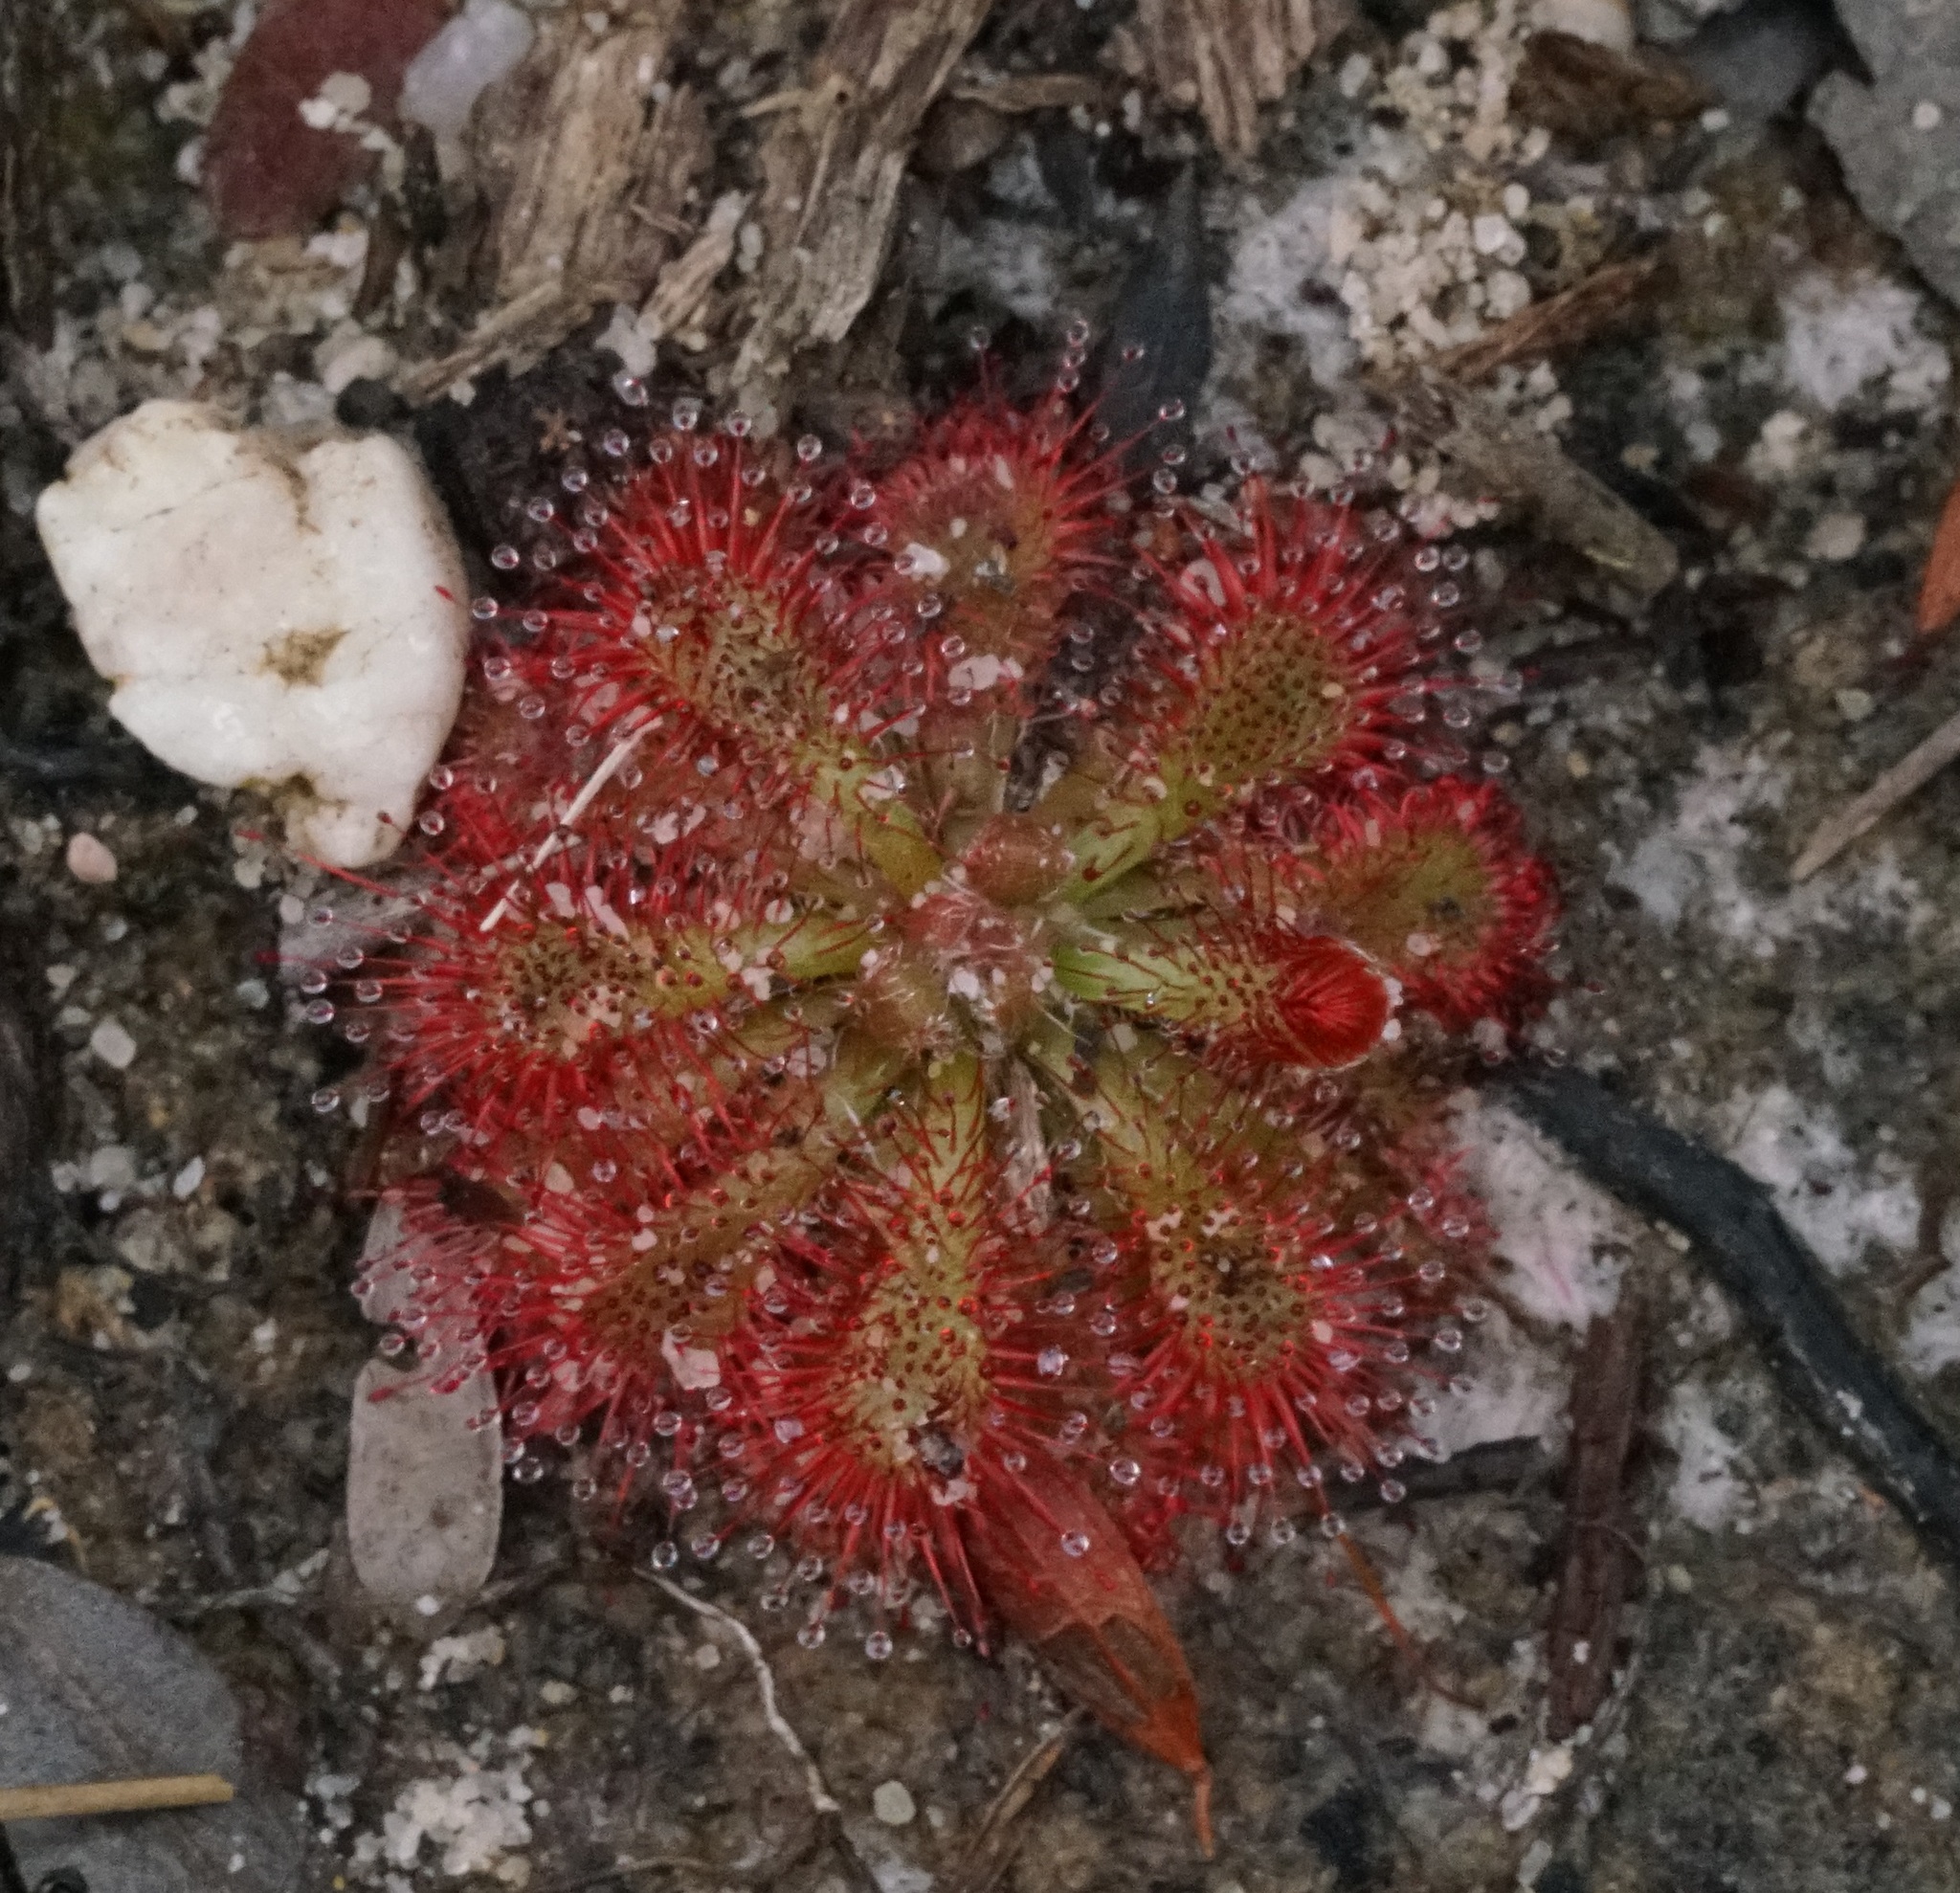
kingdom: Plantae
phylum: Tracheophyta
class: Magnoliopsida
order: Caryophyllales
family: Droseraceae
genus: Drosera
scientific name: Drosera spatulata
